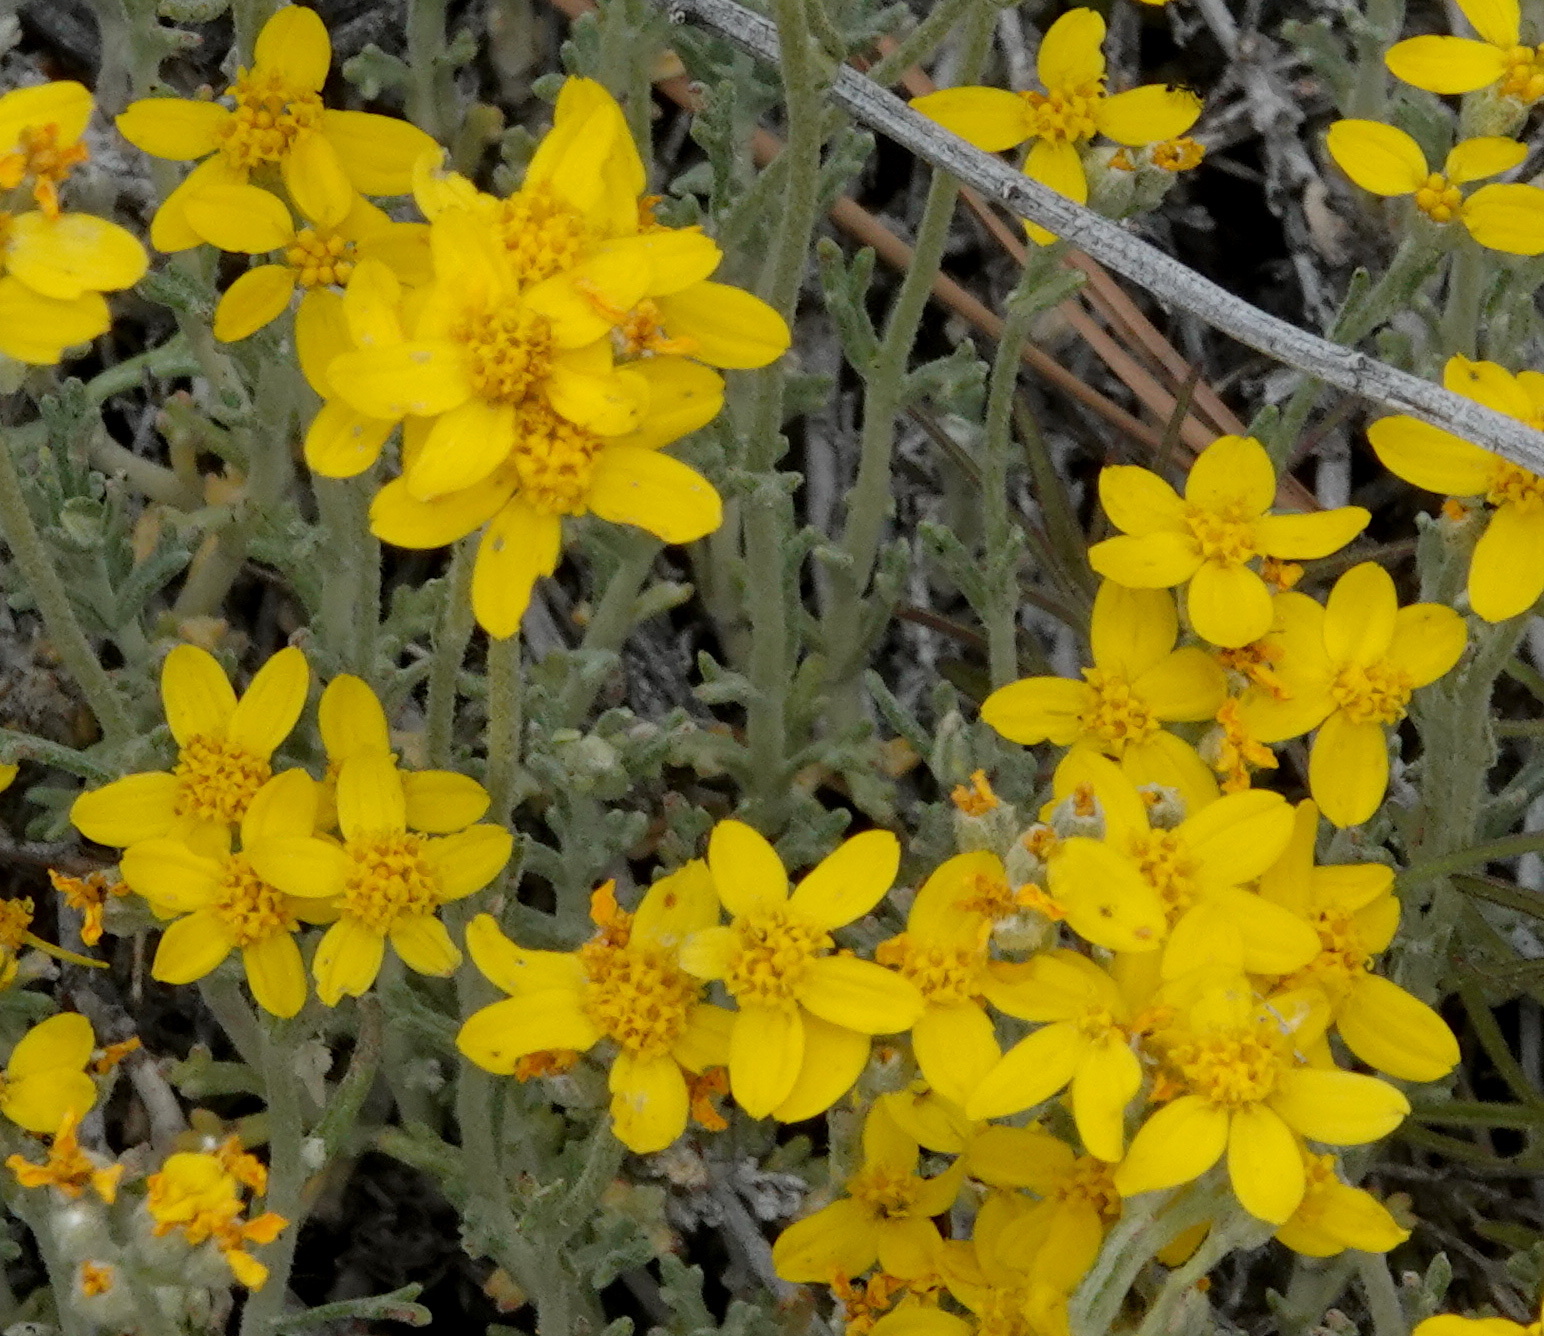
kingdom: Plantae
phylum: Tracheophyta
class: Magnoliopsida
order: Asterales
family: Asteraceae
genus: Eriophyllum
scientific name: Eriophyllum confertiflorum
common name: Golden-yarrow
